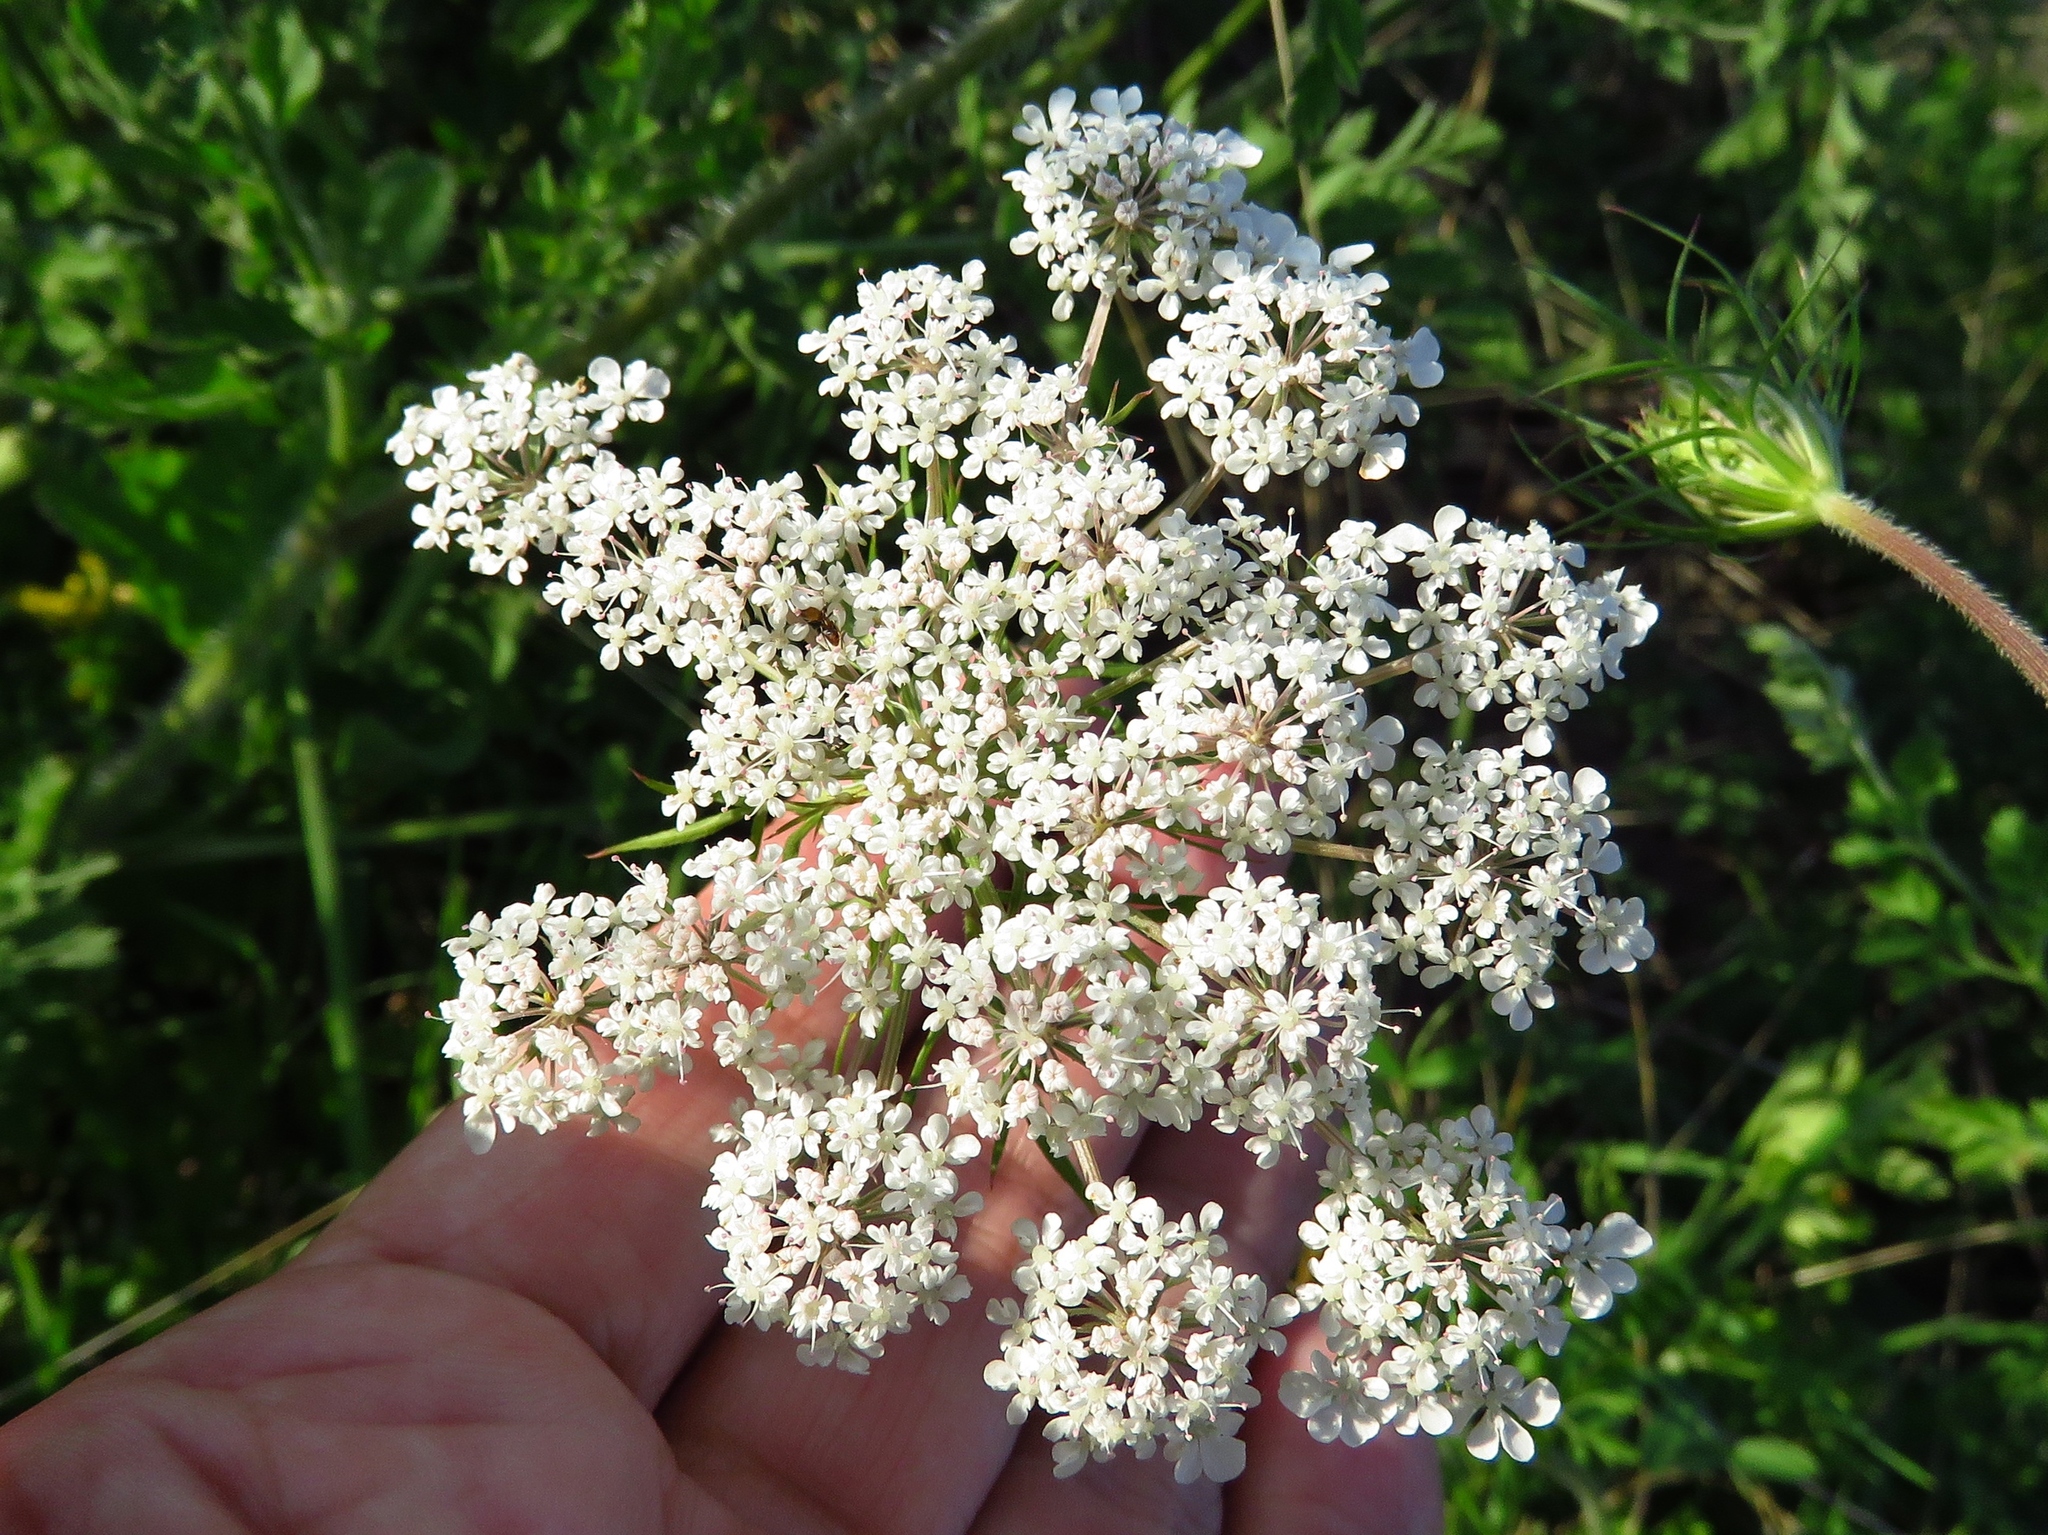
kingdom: Plantae
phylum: Tracheophyta
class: Magnoliopsida
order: Apiales
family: Apiaceae
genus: Daucus
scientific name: Daucus carota
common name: Wild carrot
